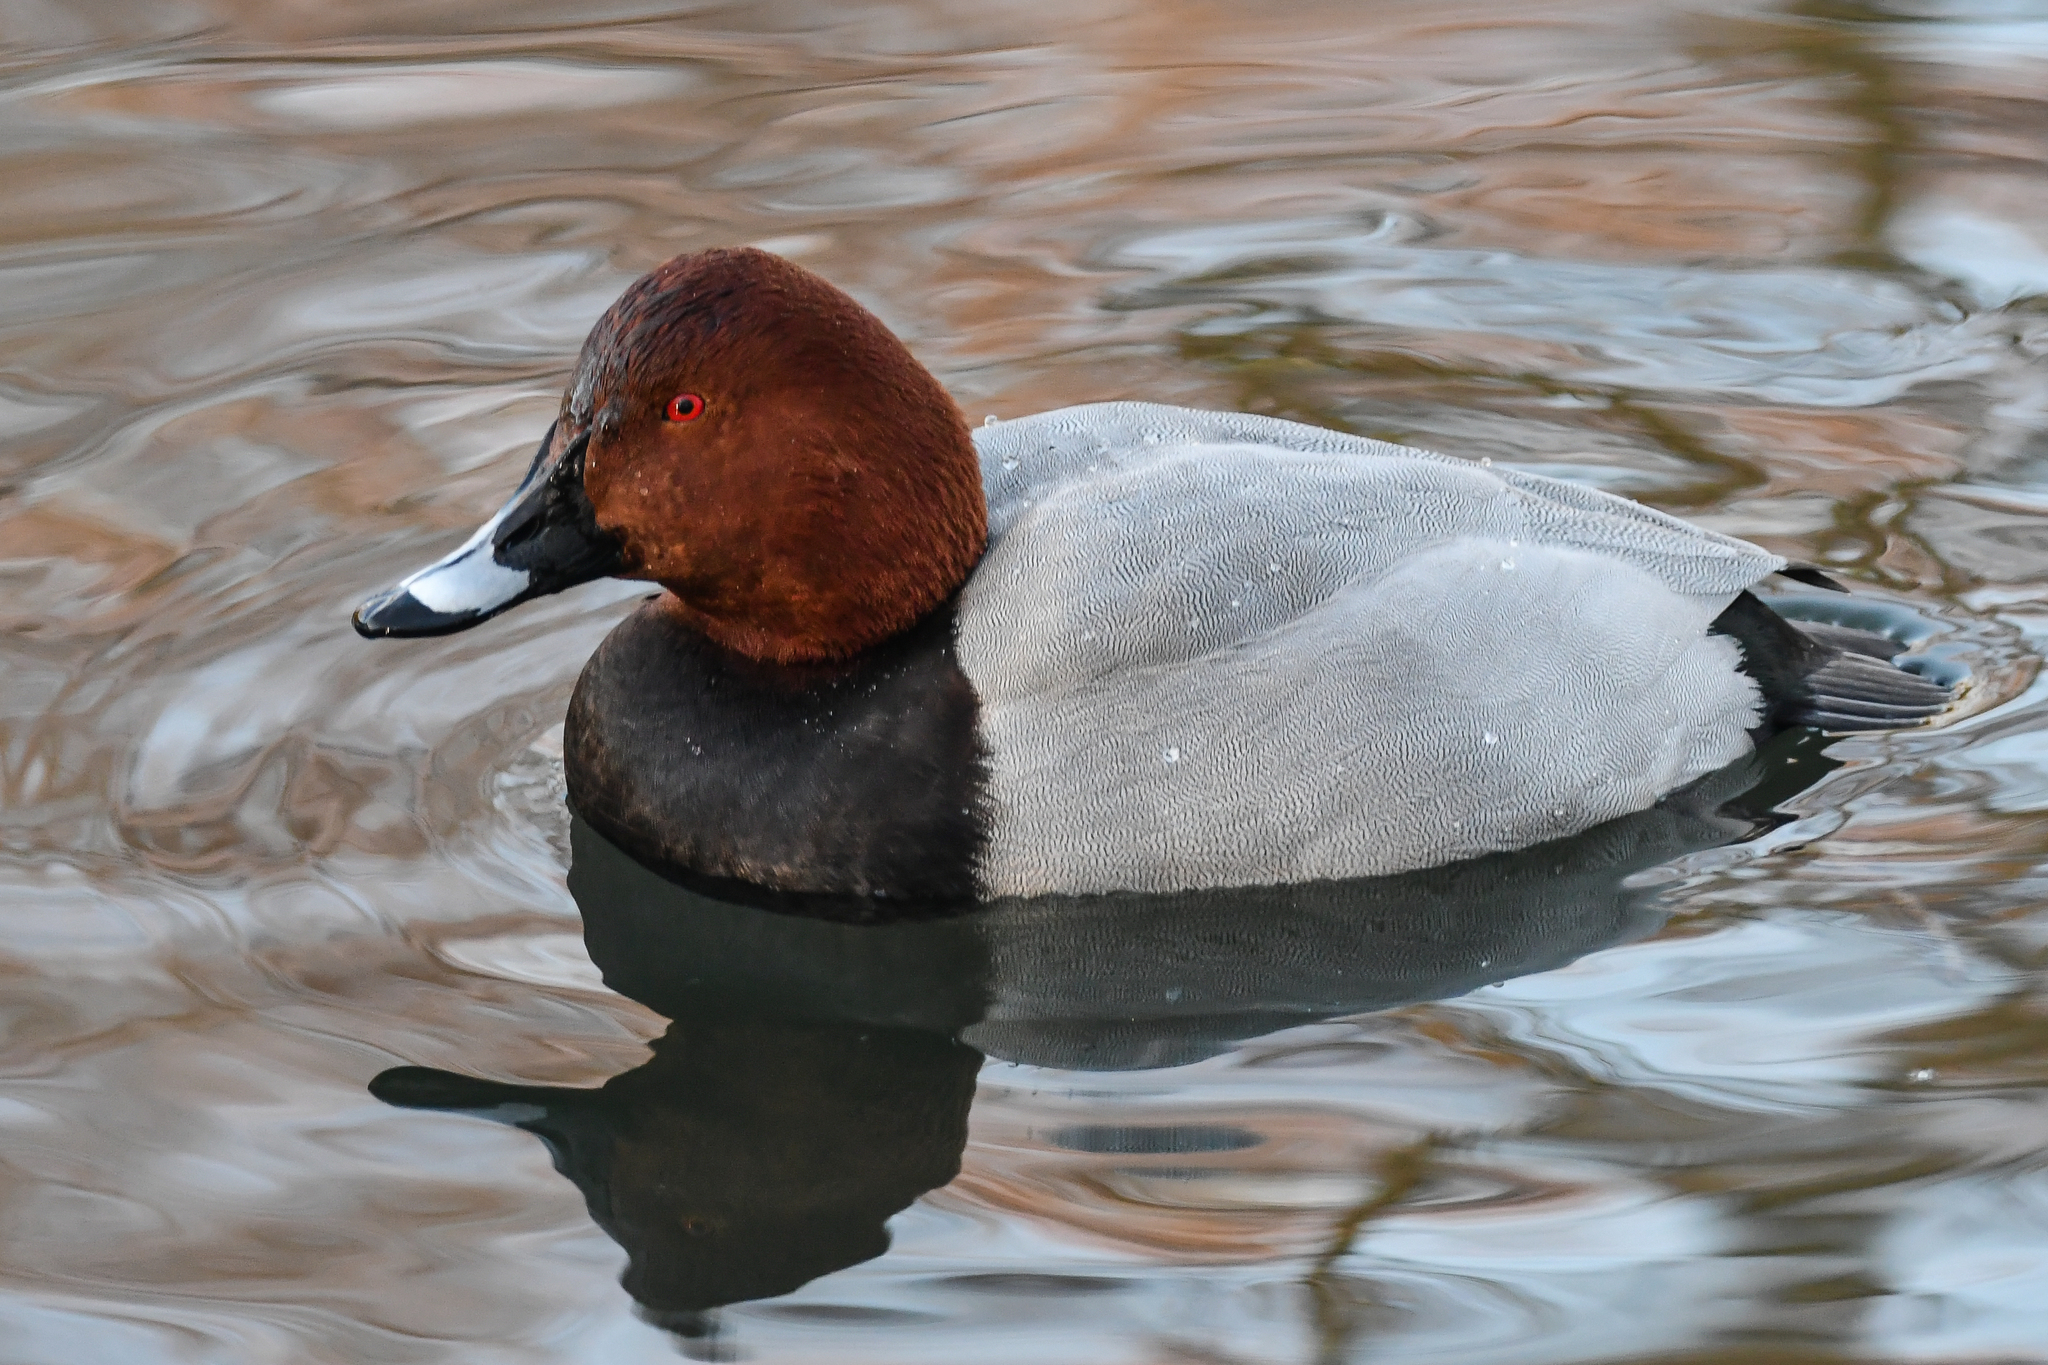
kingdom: Animalia
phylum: Chordata
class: Aves
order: Anseriformes
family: Anatidae
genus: Aythya
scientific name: Aythya ferina
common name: Common pochard
